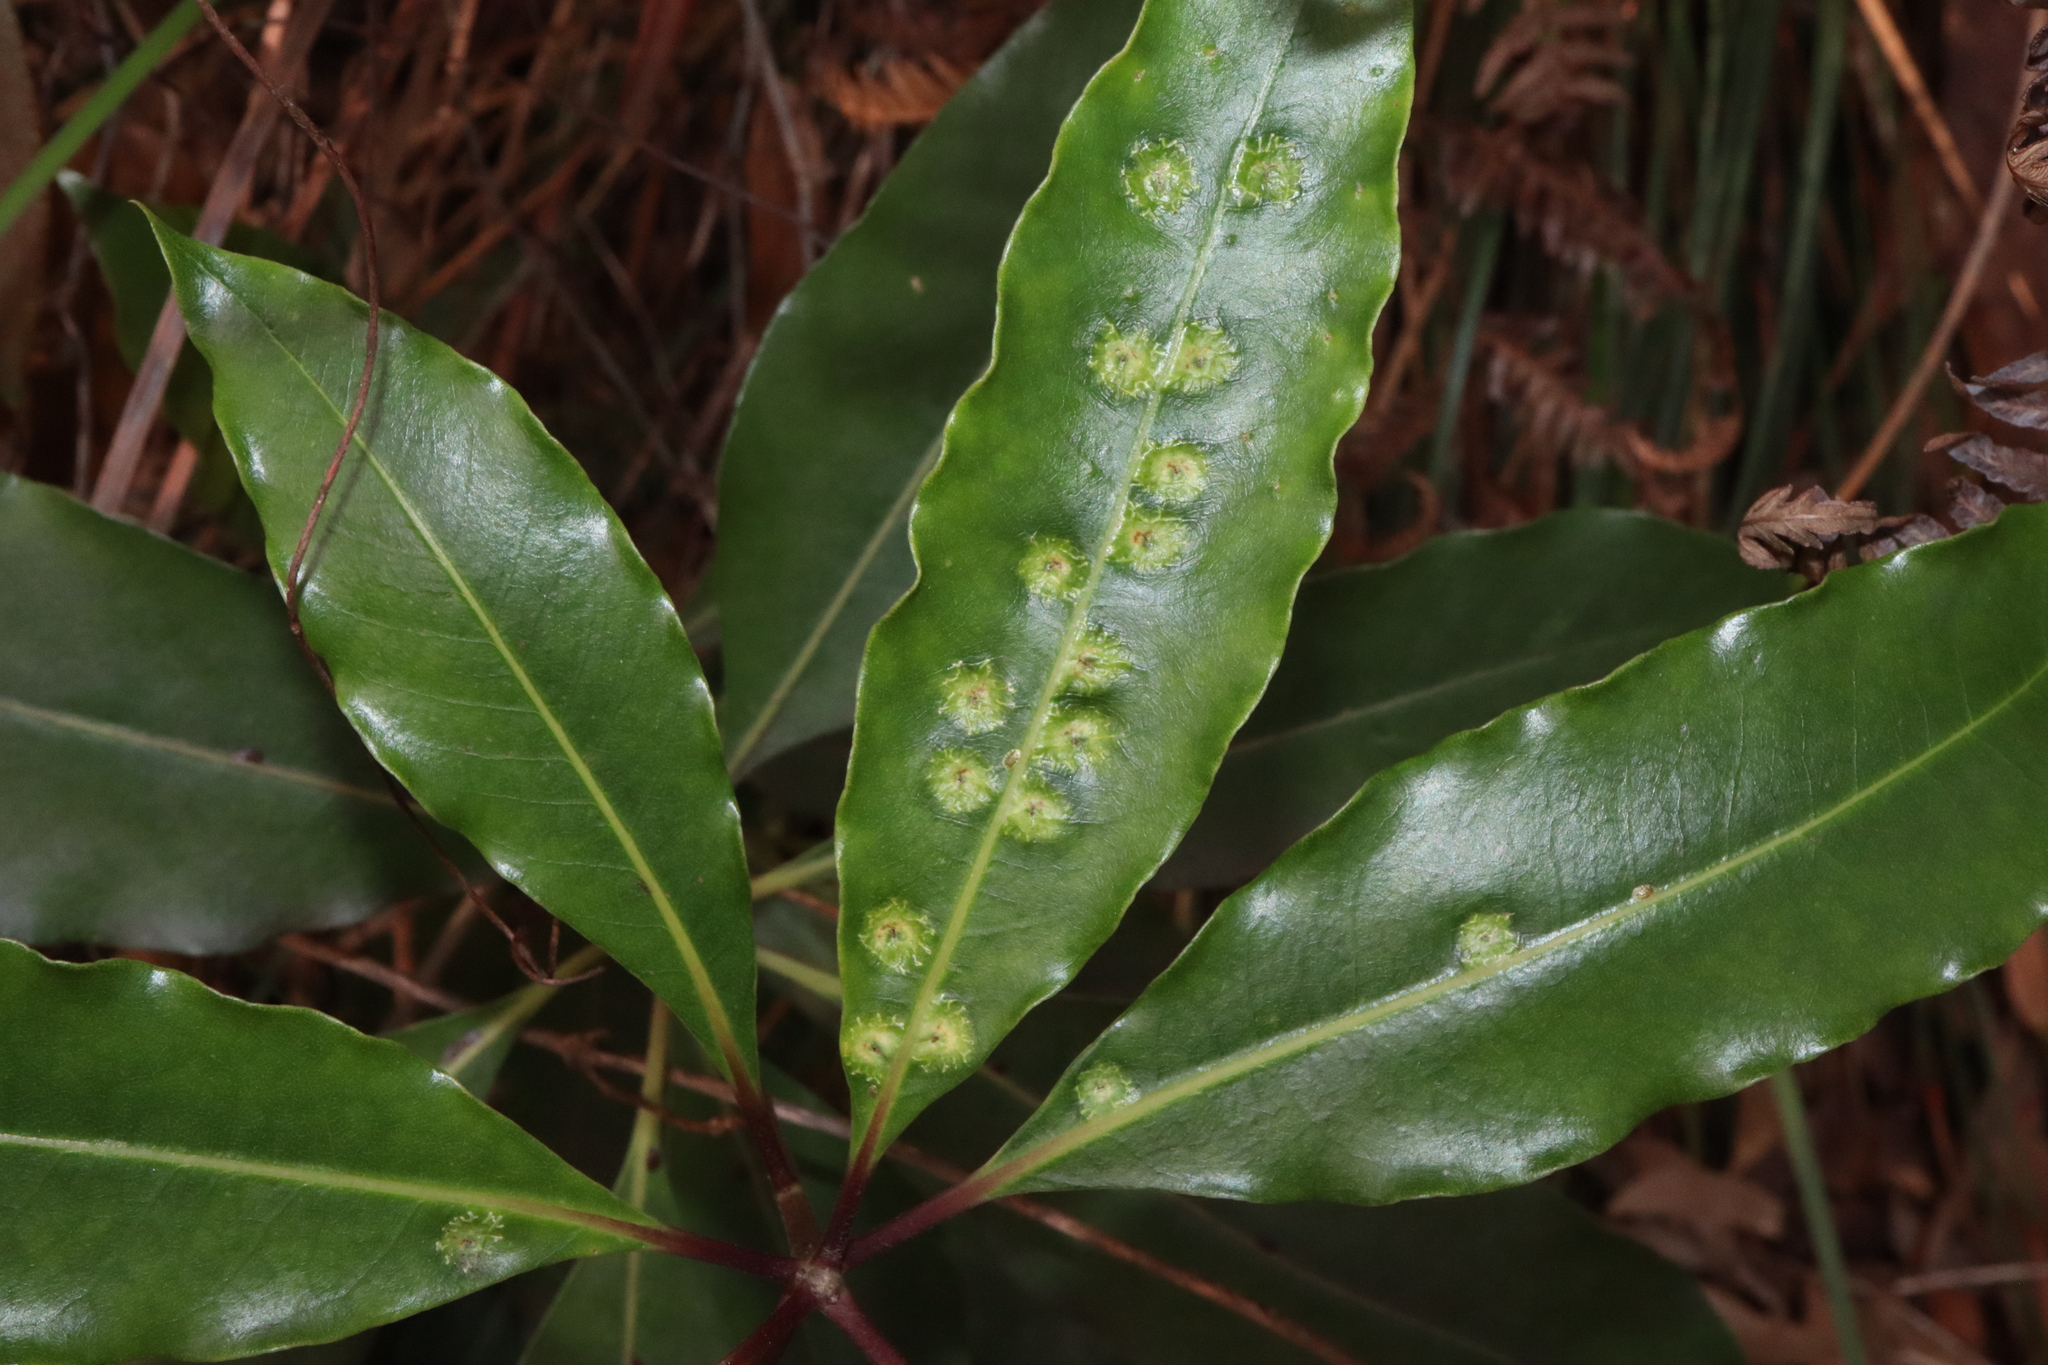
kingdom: Animalia
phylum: Arthropoda
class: Insecta
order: Diptera
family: Agromyzidae
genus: Phytoliriomyza
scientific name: Phytoliriomyza pittosporophylli
